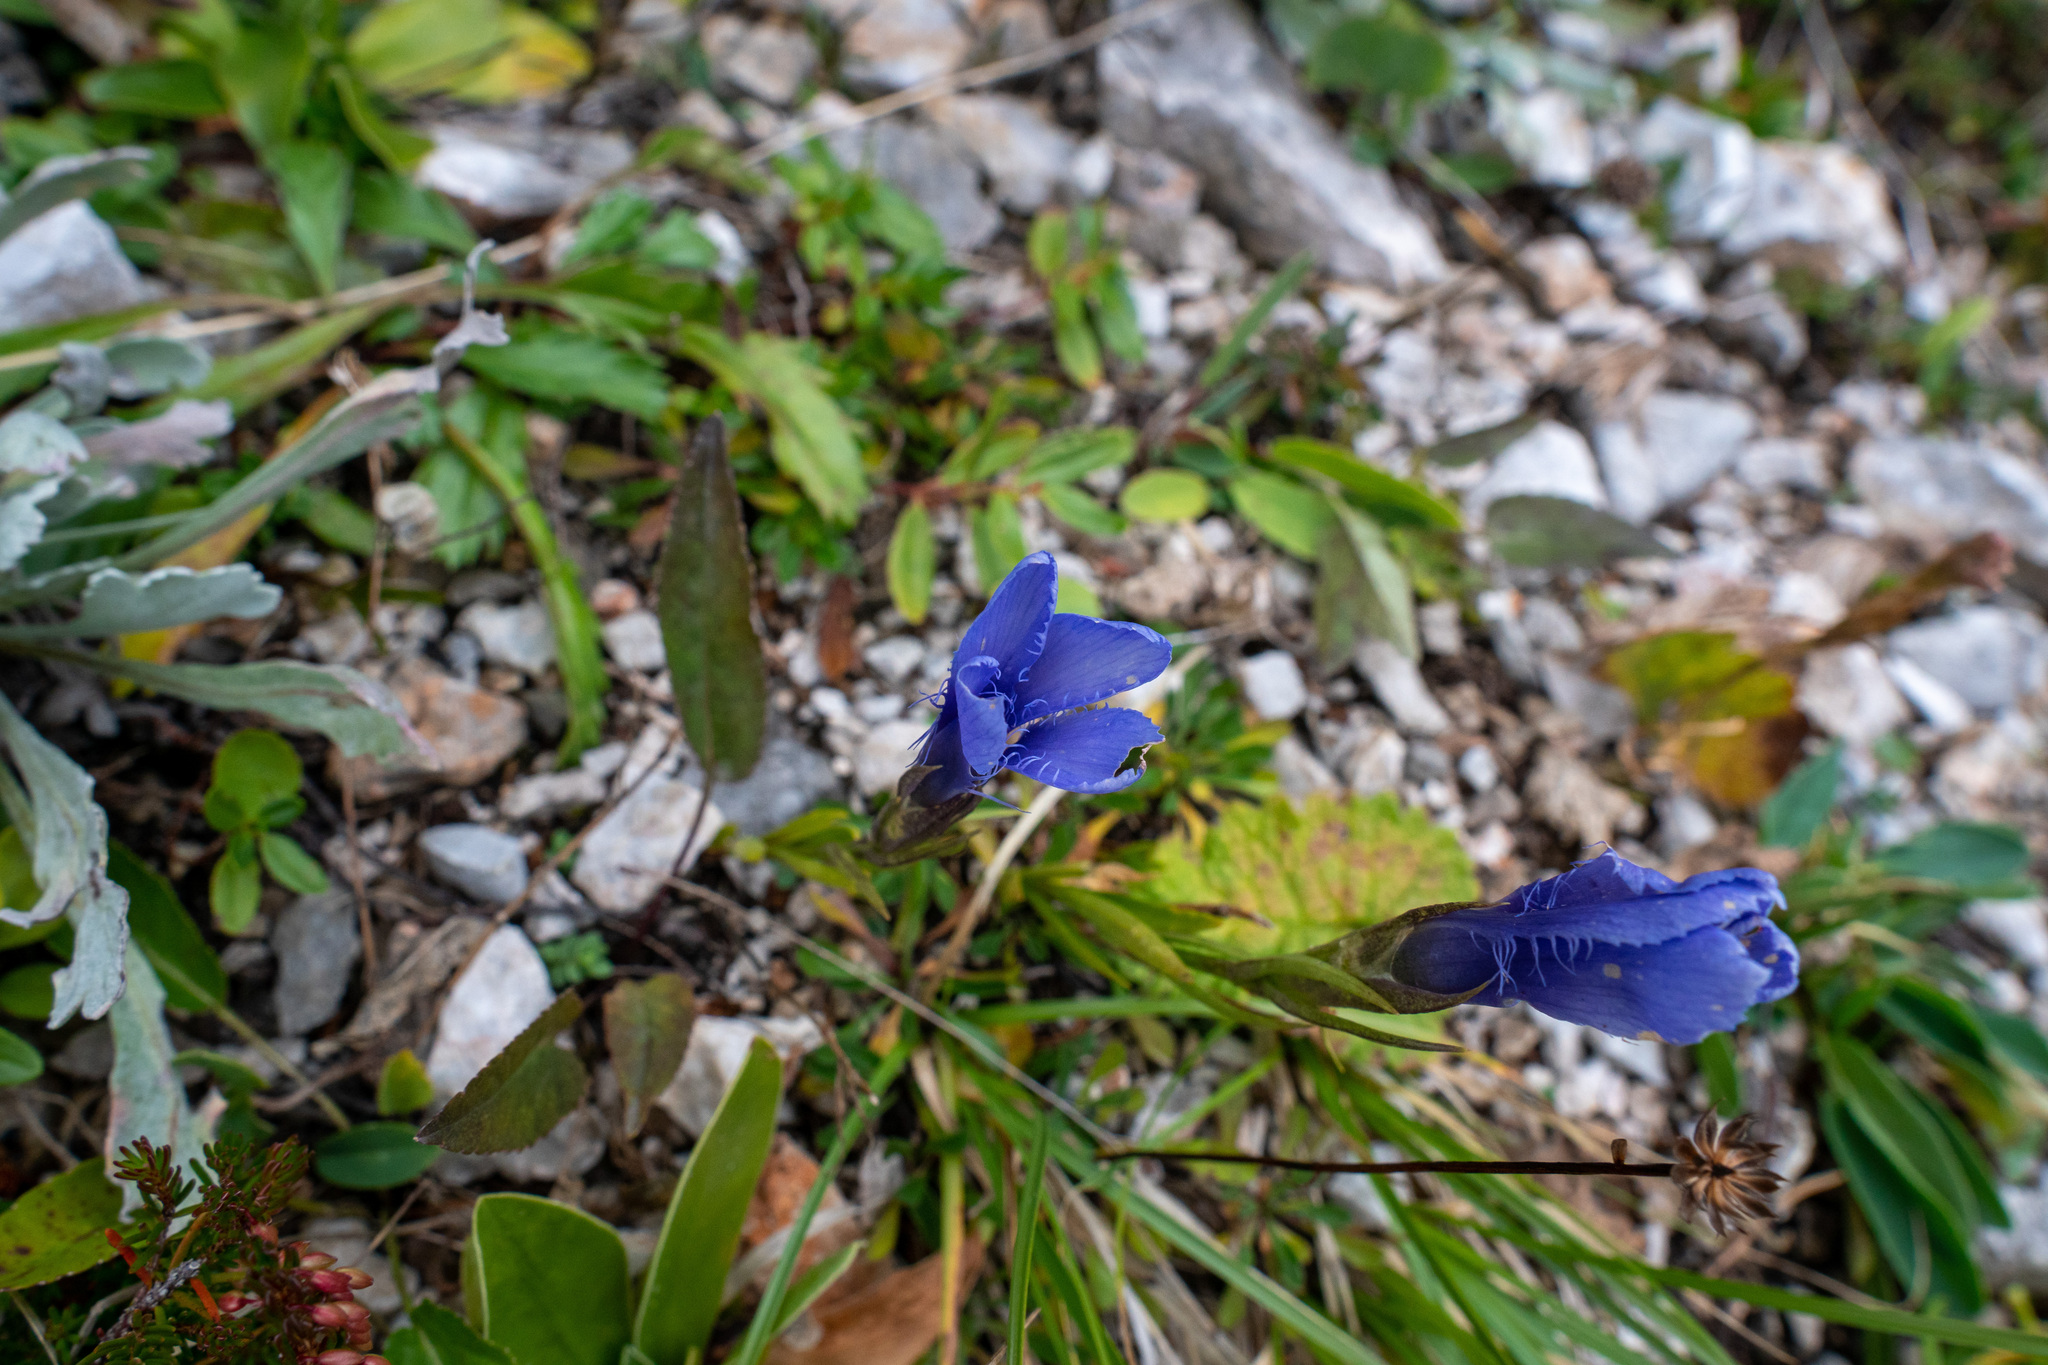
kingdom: Plantae
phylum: Tracheophyta
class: Magnoliopsida
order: Gentianales
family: Gentianaceae
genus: Gentianopsis
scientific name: Gentianopsis ciliata
